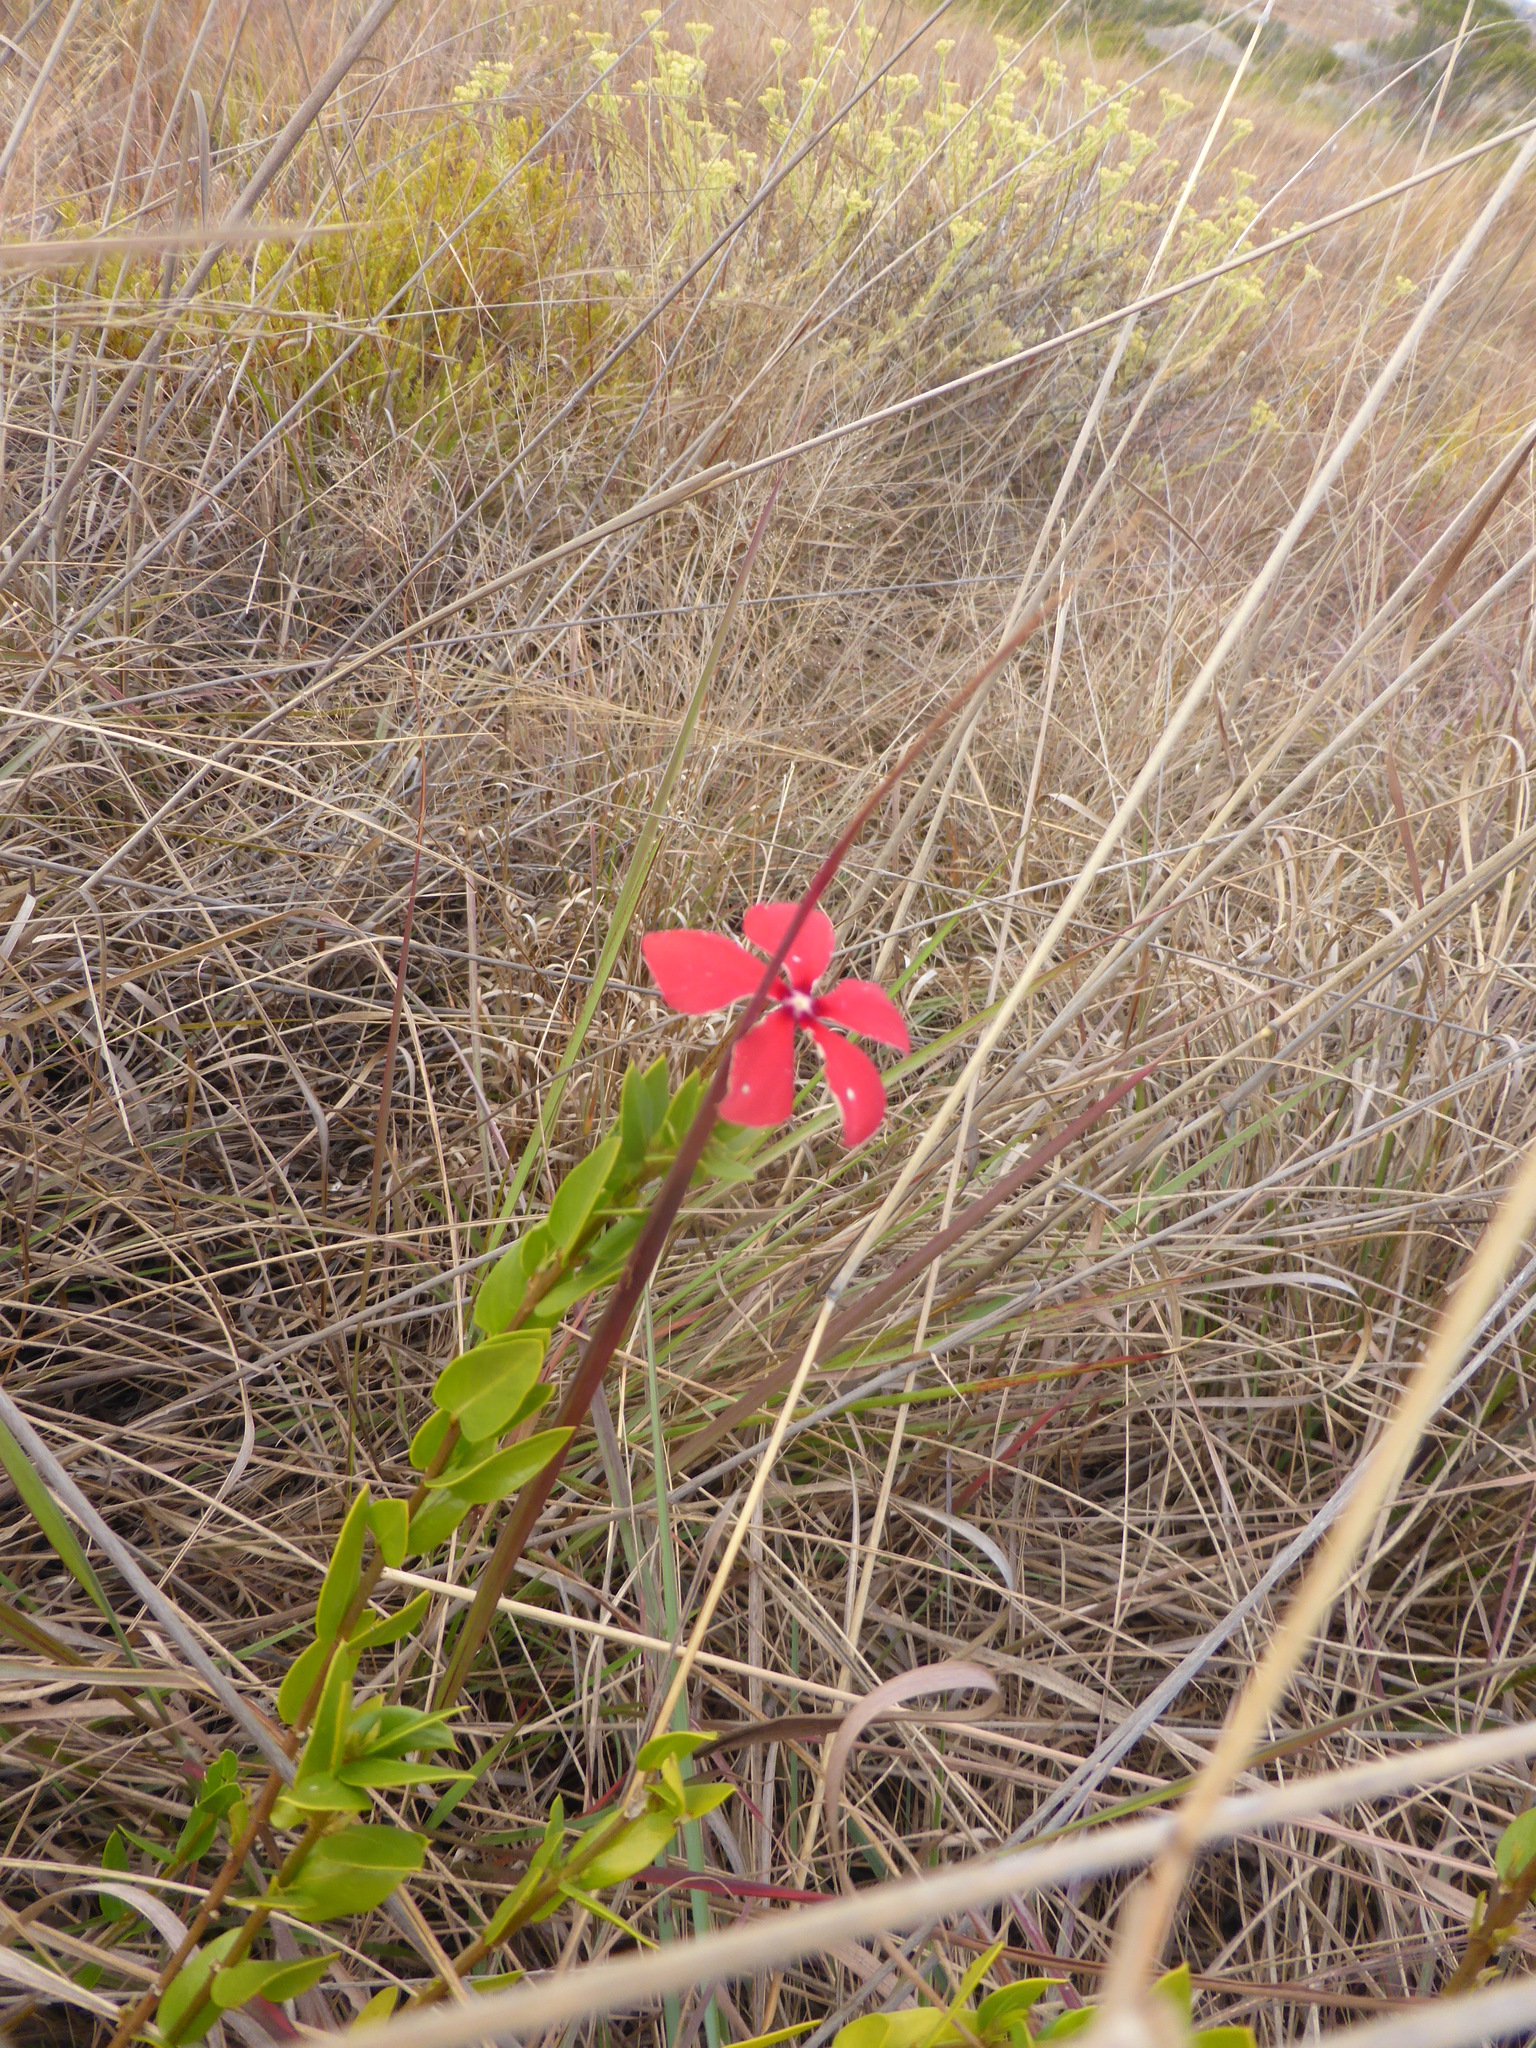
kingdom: Plantae
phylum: Tracheophyta
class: Magnoliopsida
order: Gentianales
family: Apocynaceae
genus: Catharanthus
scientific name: Catharanthus ovalis
